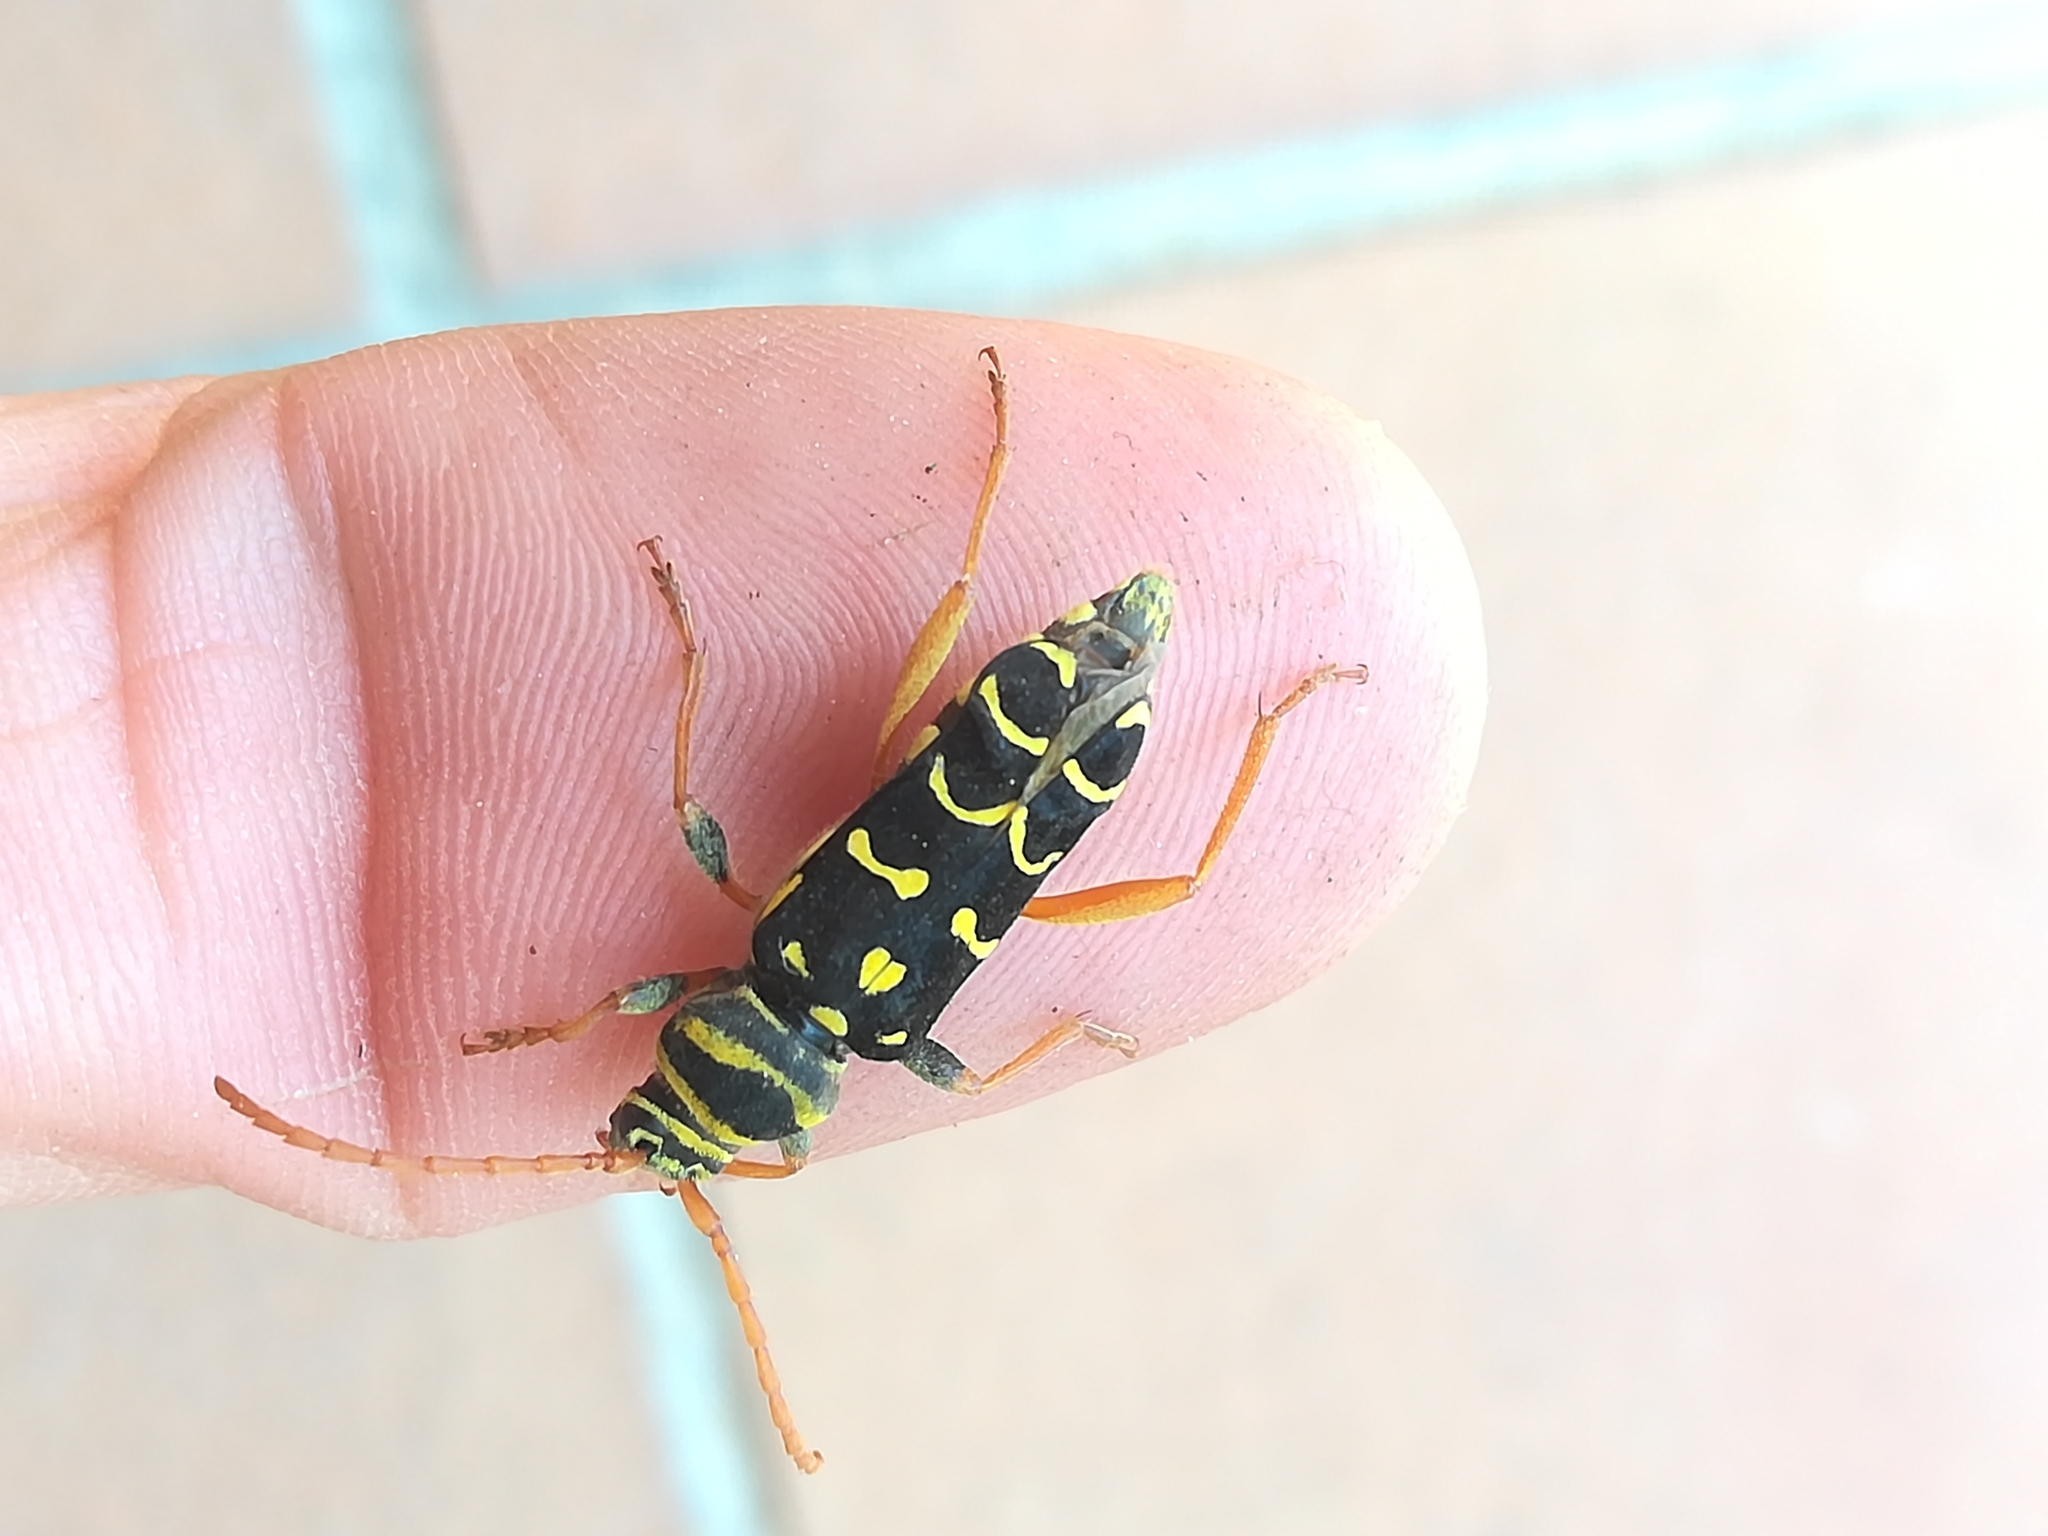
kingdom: Animalia
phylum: Arthropoda
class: Insecta
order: Coleoptera
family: Cerambycidae
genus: Plagionotus
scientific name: Plagionotus arcuatus
